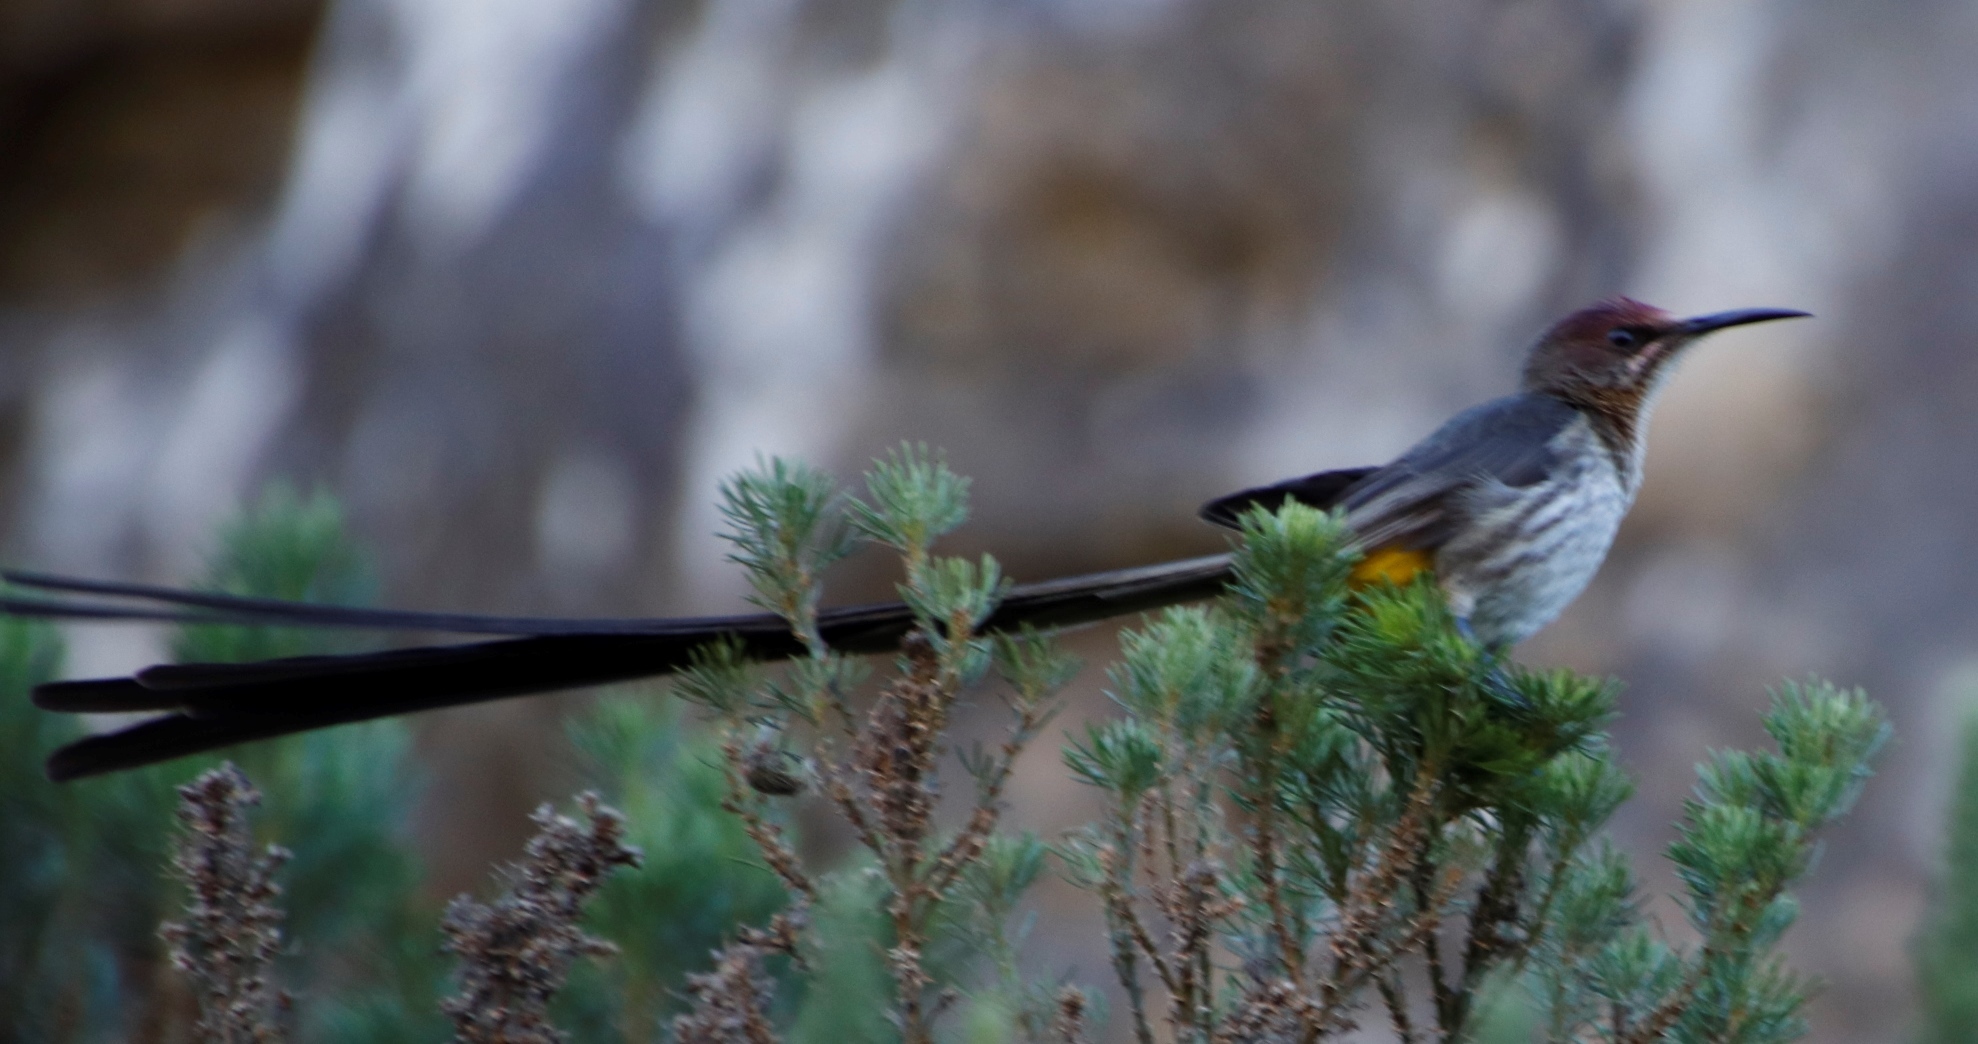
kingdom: Animalia
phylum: Chordata
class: Aves
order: Passeriformes
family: Promeropidae
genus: Promerops
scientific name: Promerops cafer
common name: Cape sugarbird
